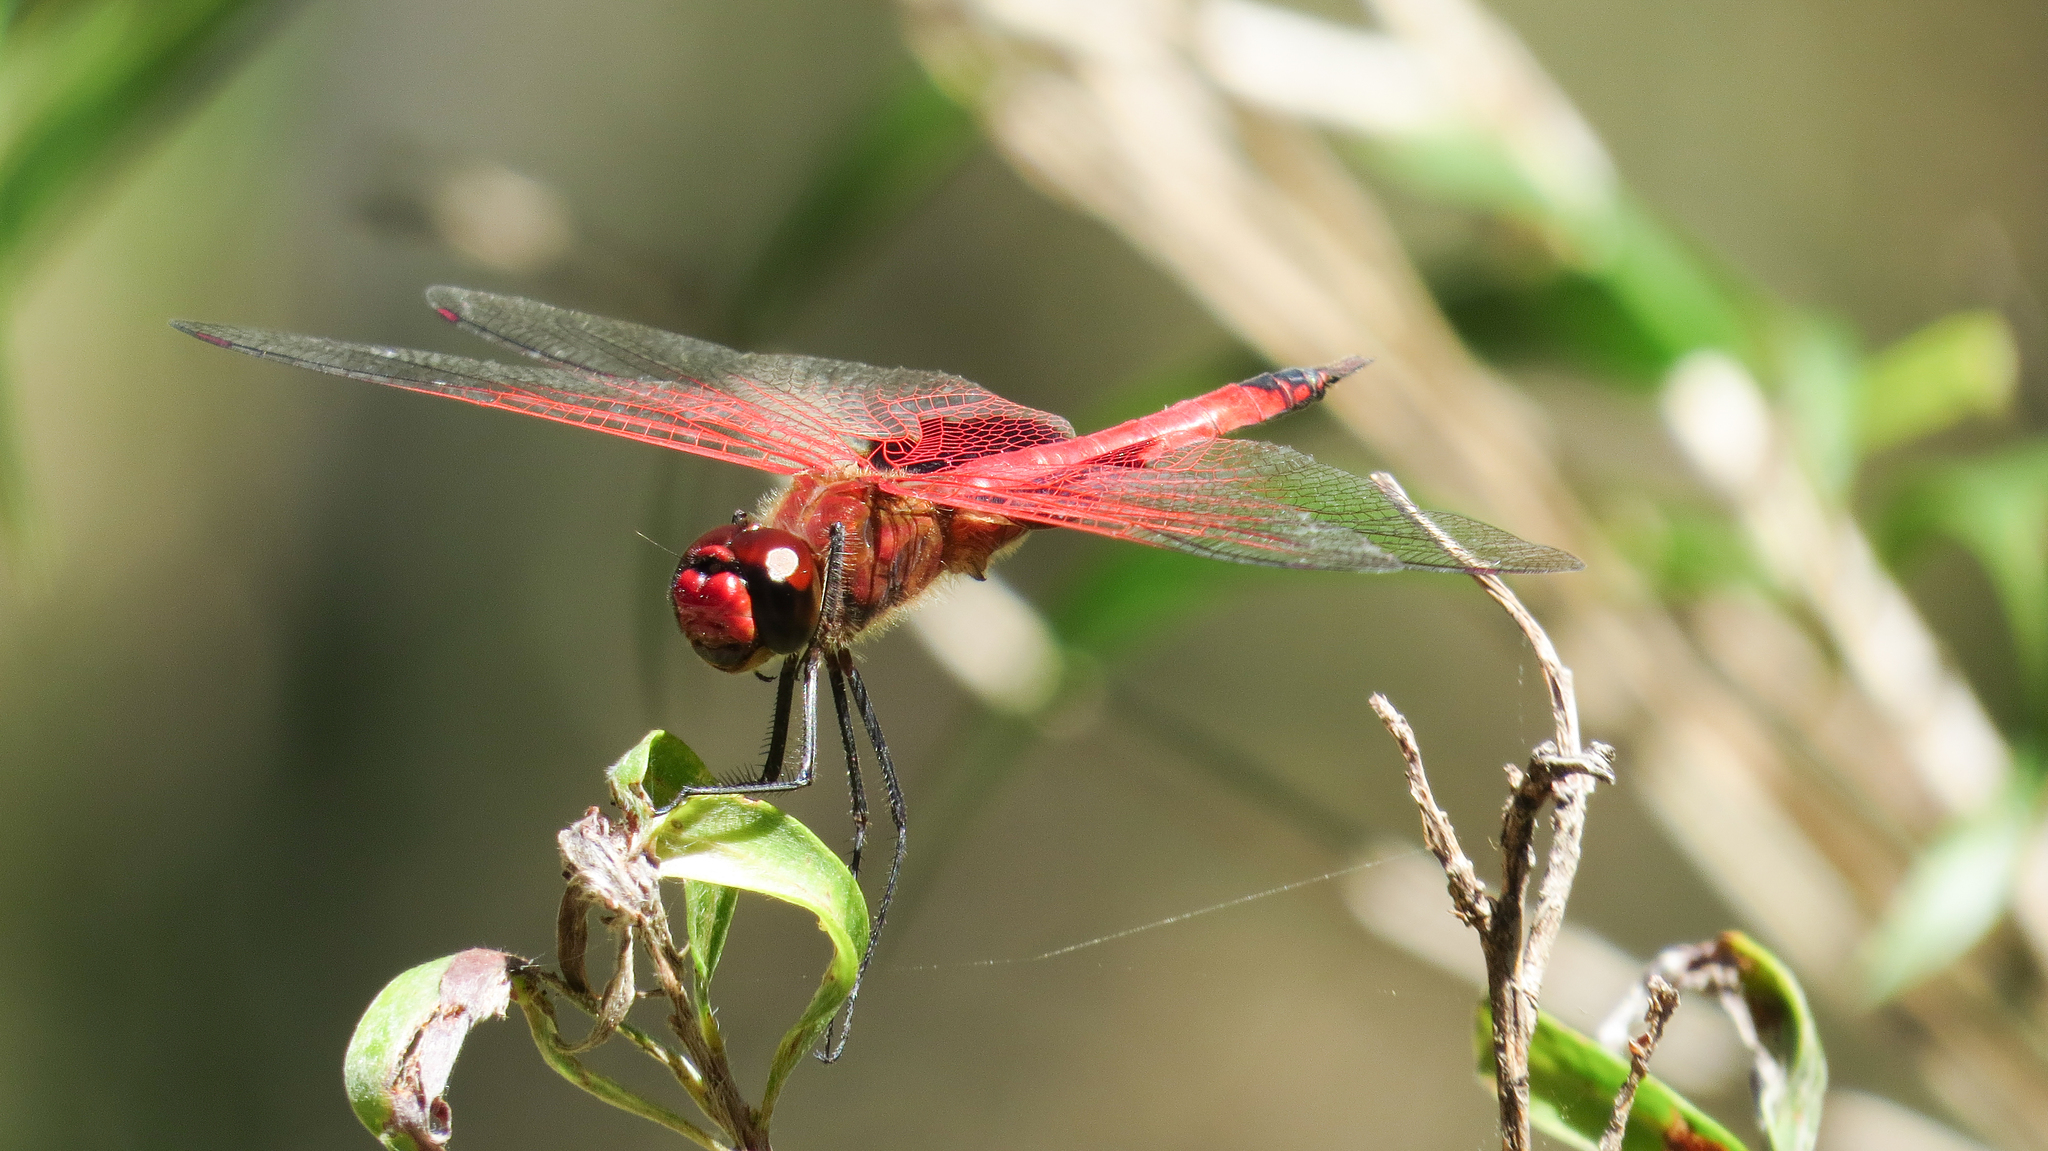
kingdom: Animalia
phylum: Arthropoda
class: Insecta
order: Odonata
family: Libellulidae
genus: Tramea
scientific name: Tramea eurybia
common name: Dune glider
